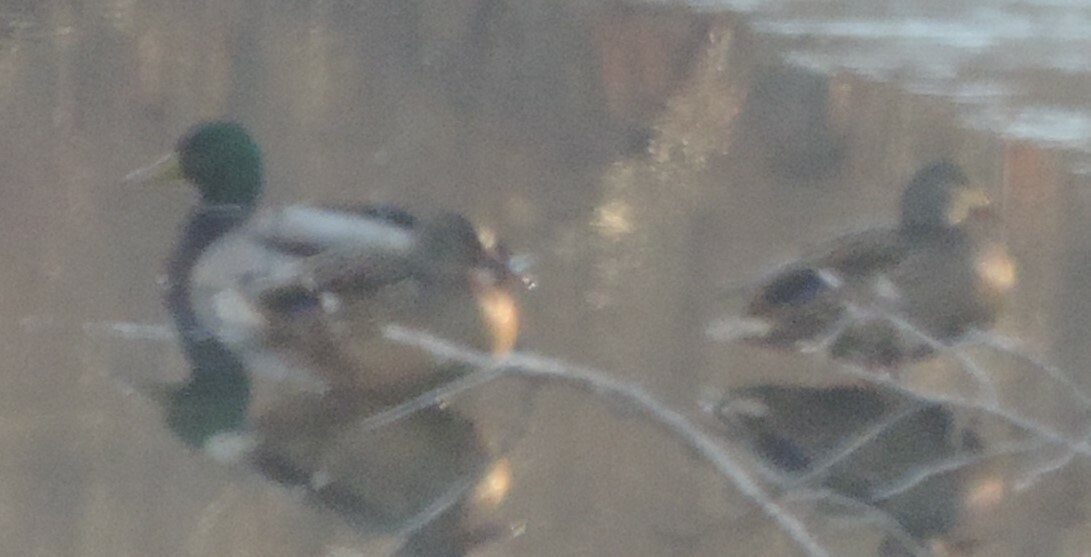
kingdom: Animalia
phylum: Chordata
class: Aves
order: Anseriformes
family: Anatidae
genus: Anas
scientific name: Anas platyrhynchos
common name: Mallard
